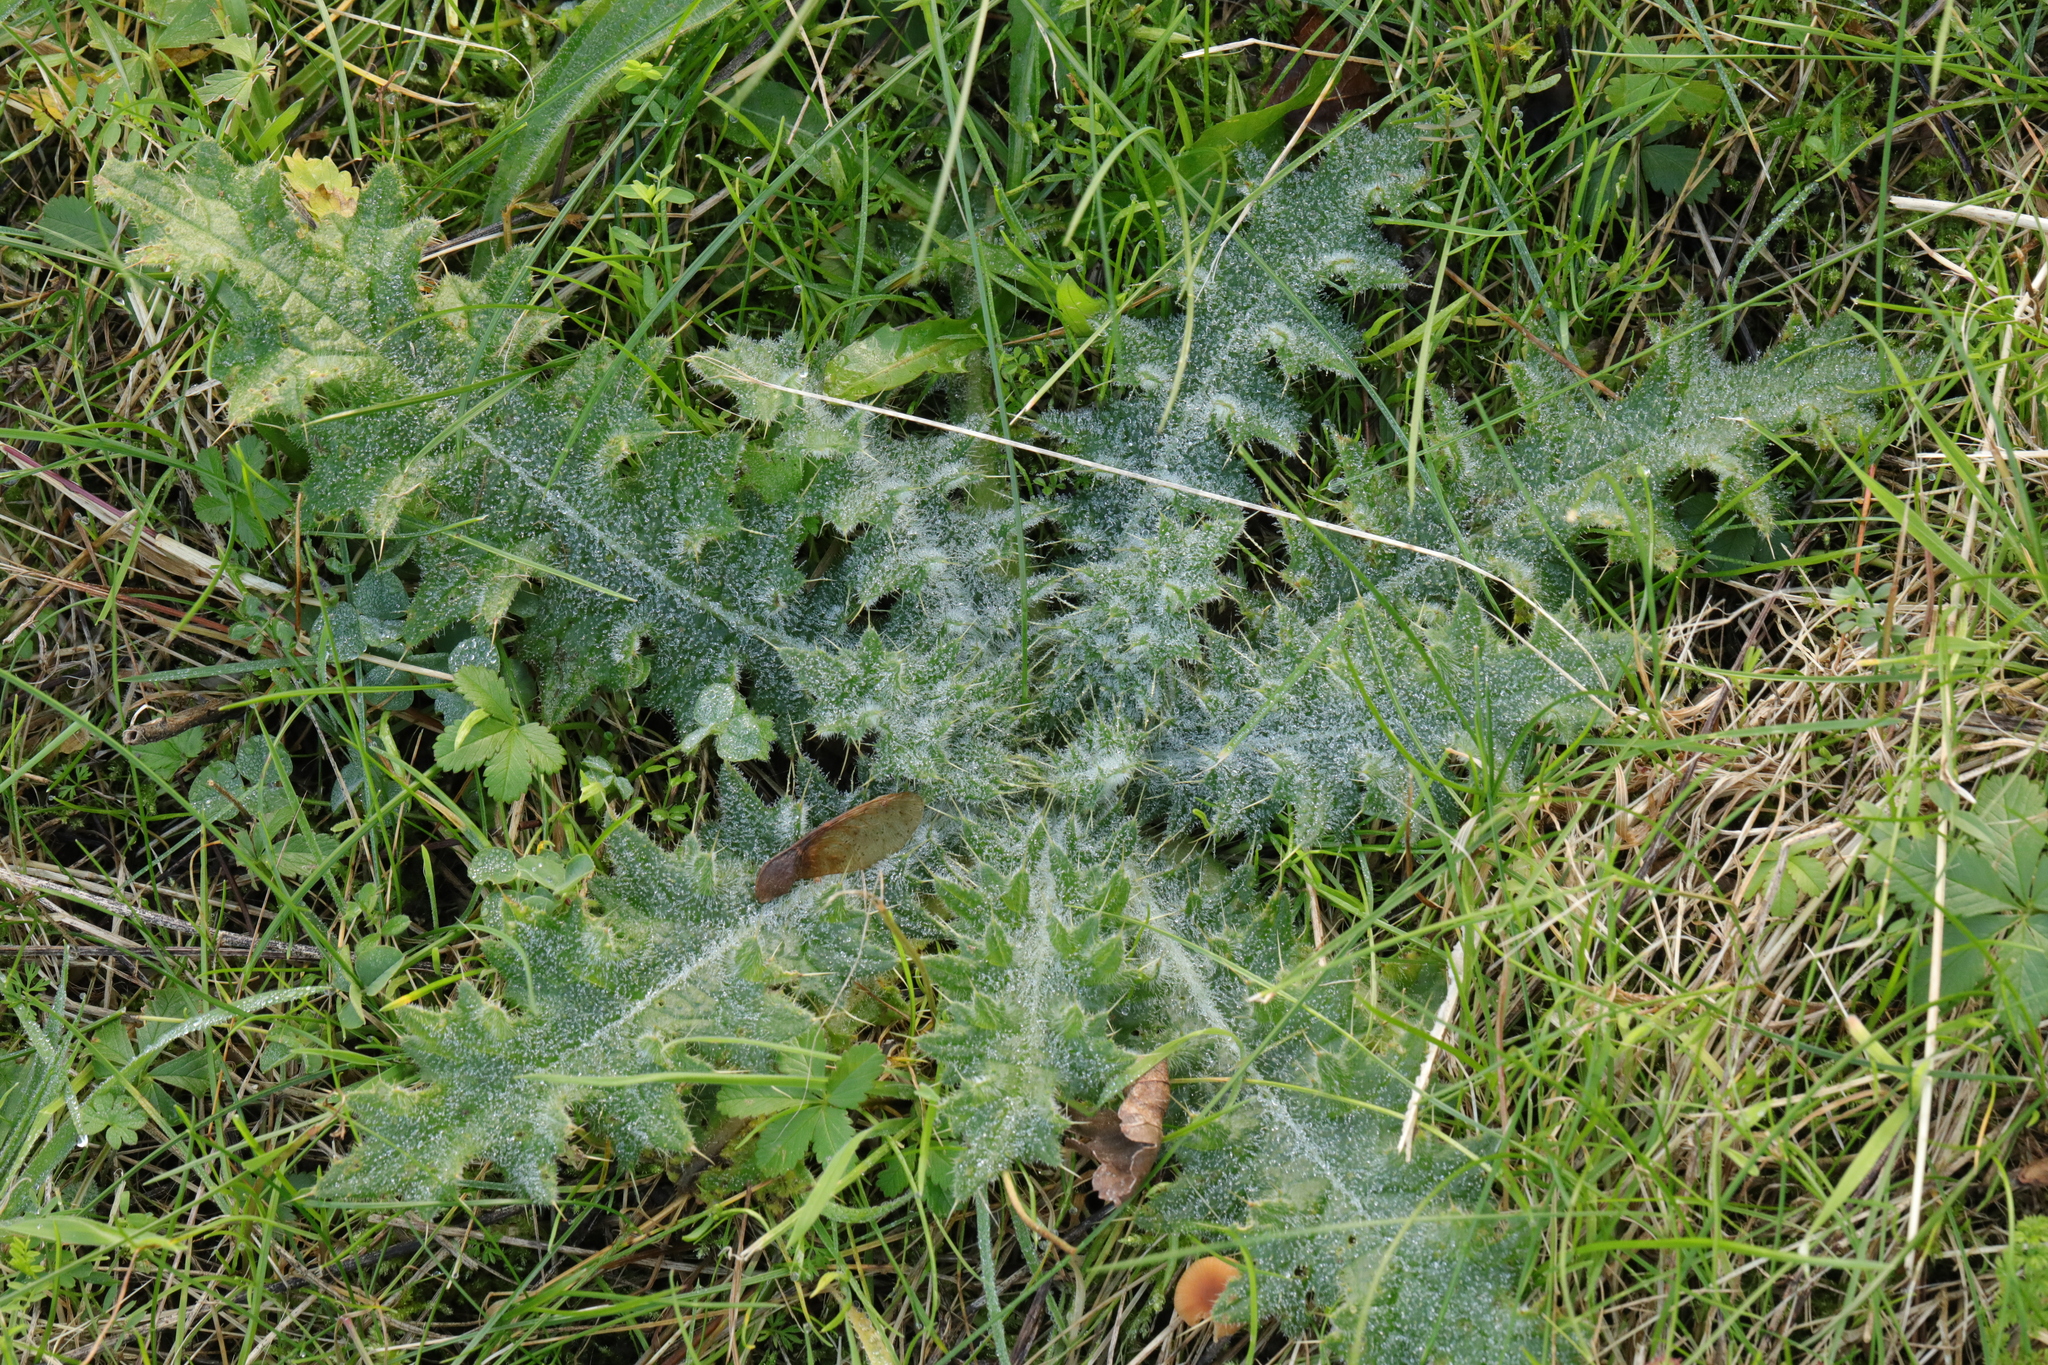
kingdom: Plantae
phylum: Tracheophyta
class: Magnoliopsida
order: Asterales
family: Asteraceae
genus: Cirsium
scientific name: Cirsium vulgare
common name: Bull thistle
